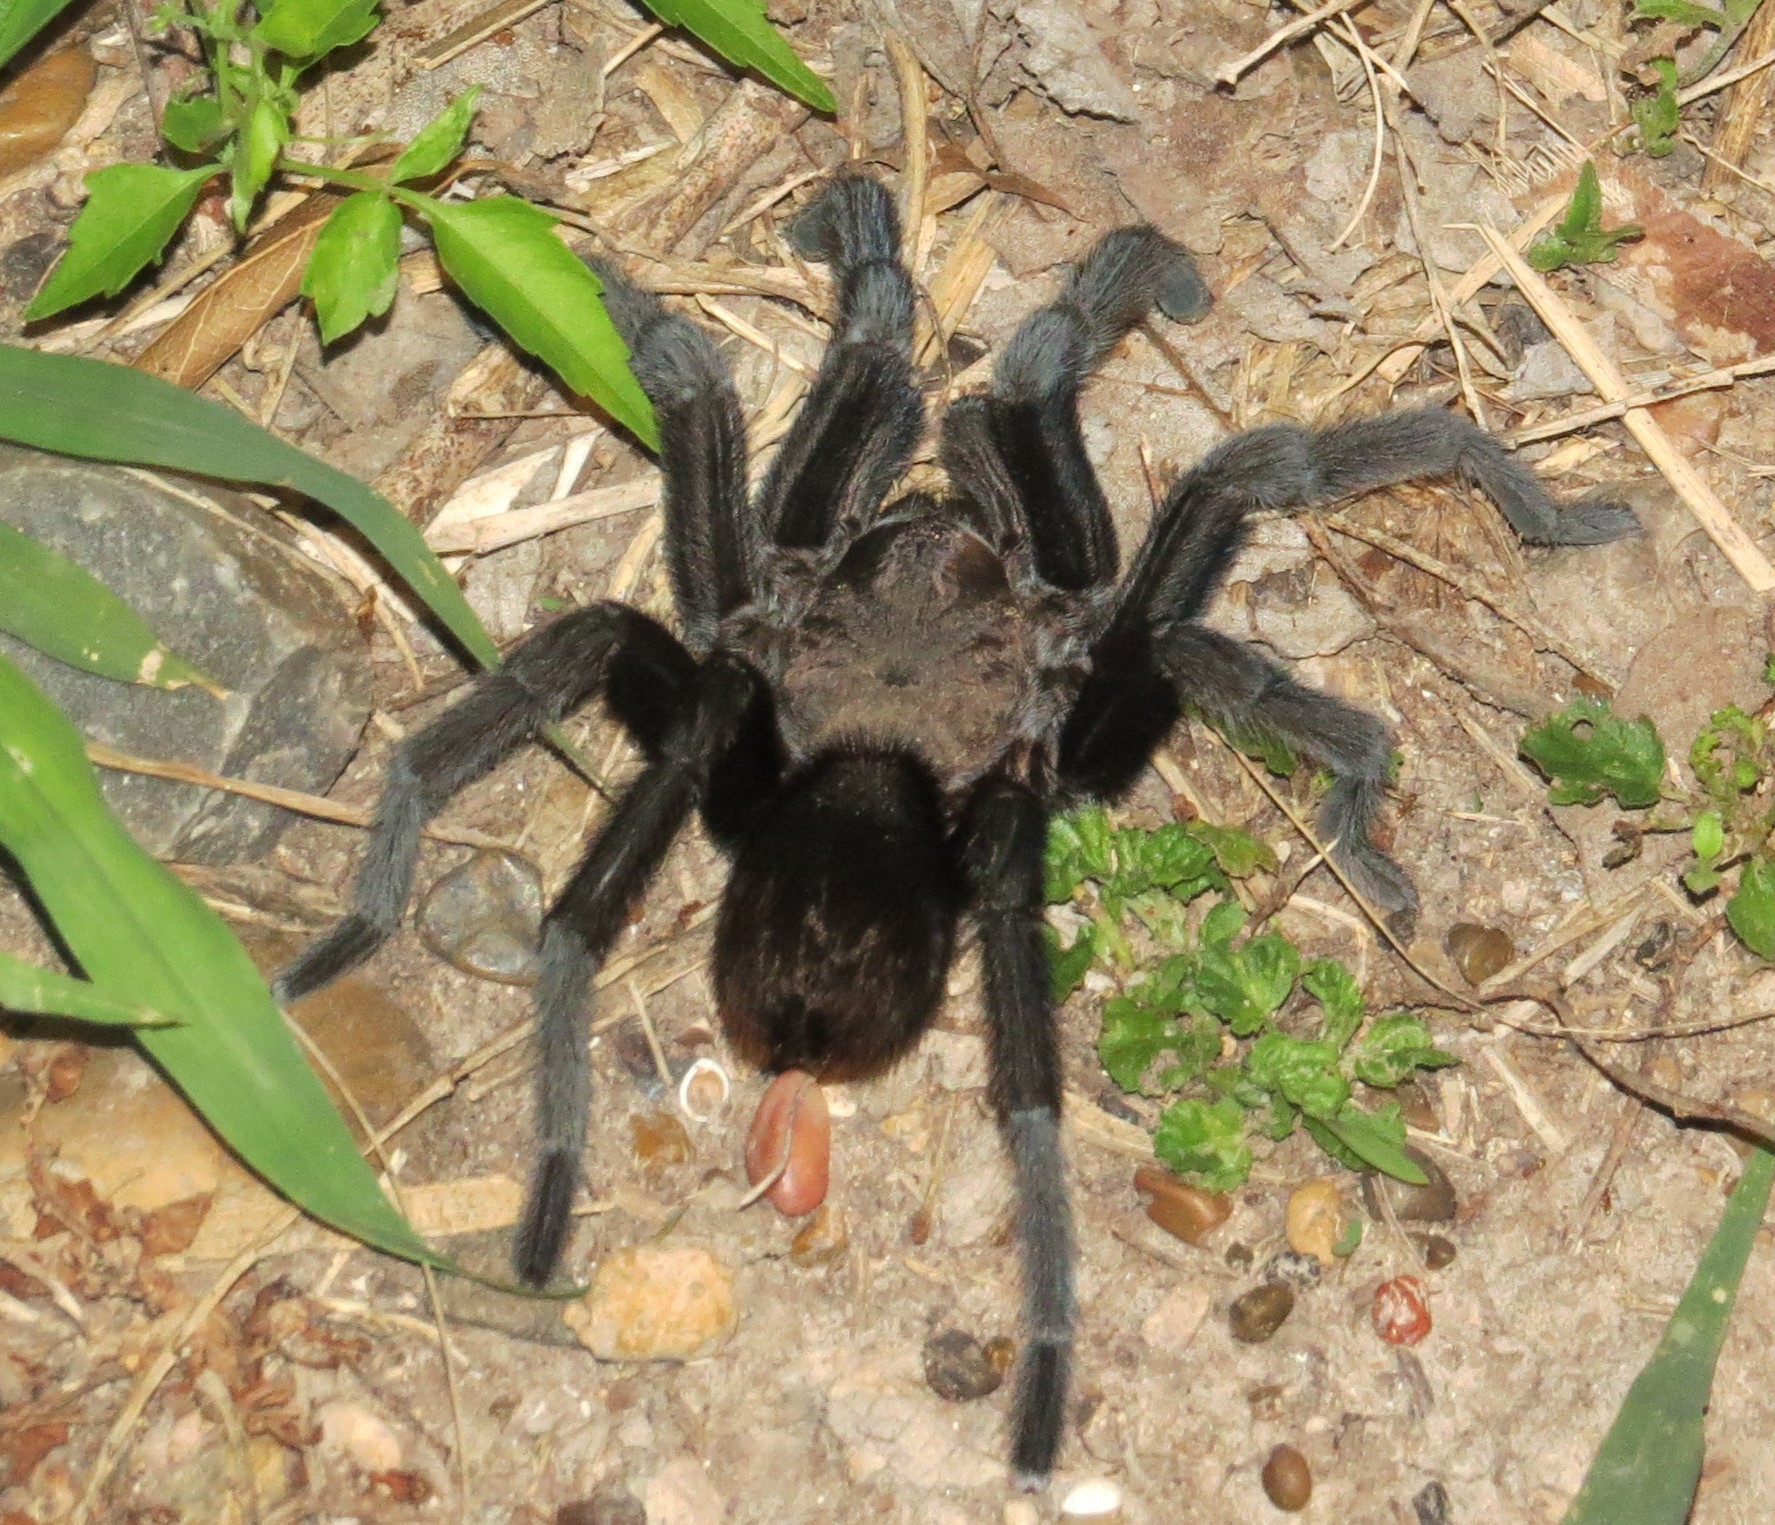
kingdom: Animalia
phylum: Arthropoda
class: Arachnida
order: Araneae
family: Theraphosidae
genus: Aphonopelma
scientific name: Aphonopelma anax
